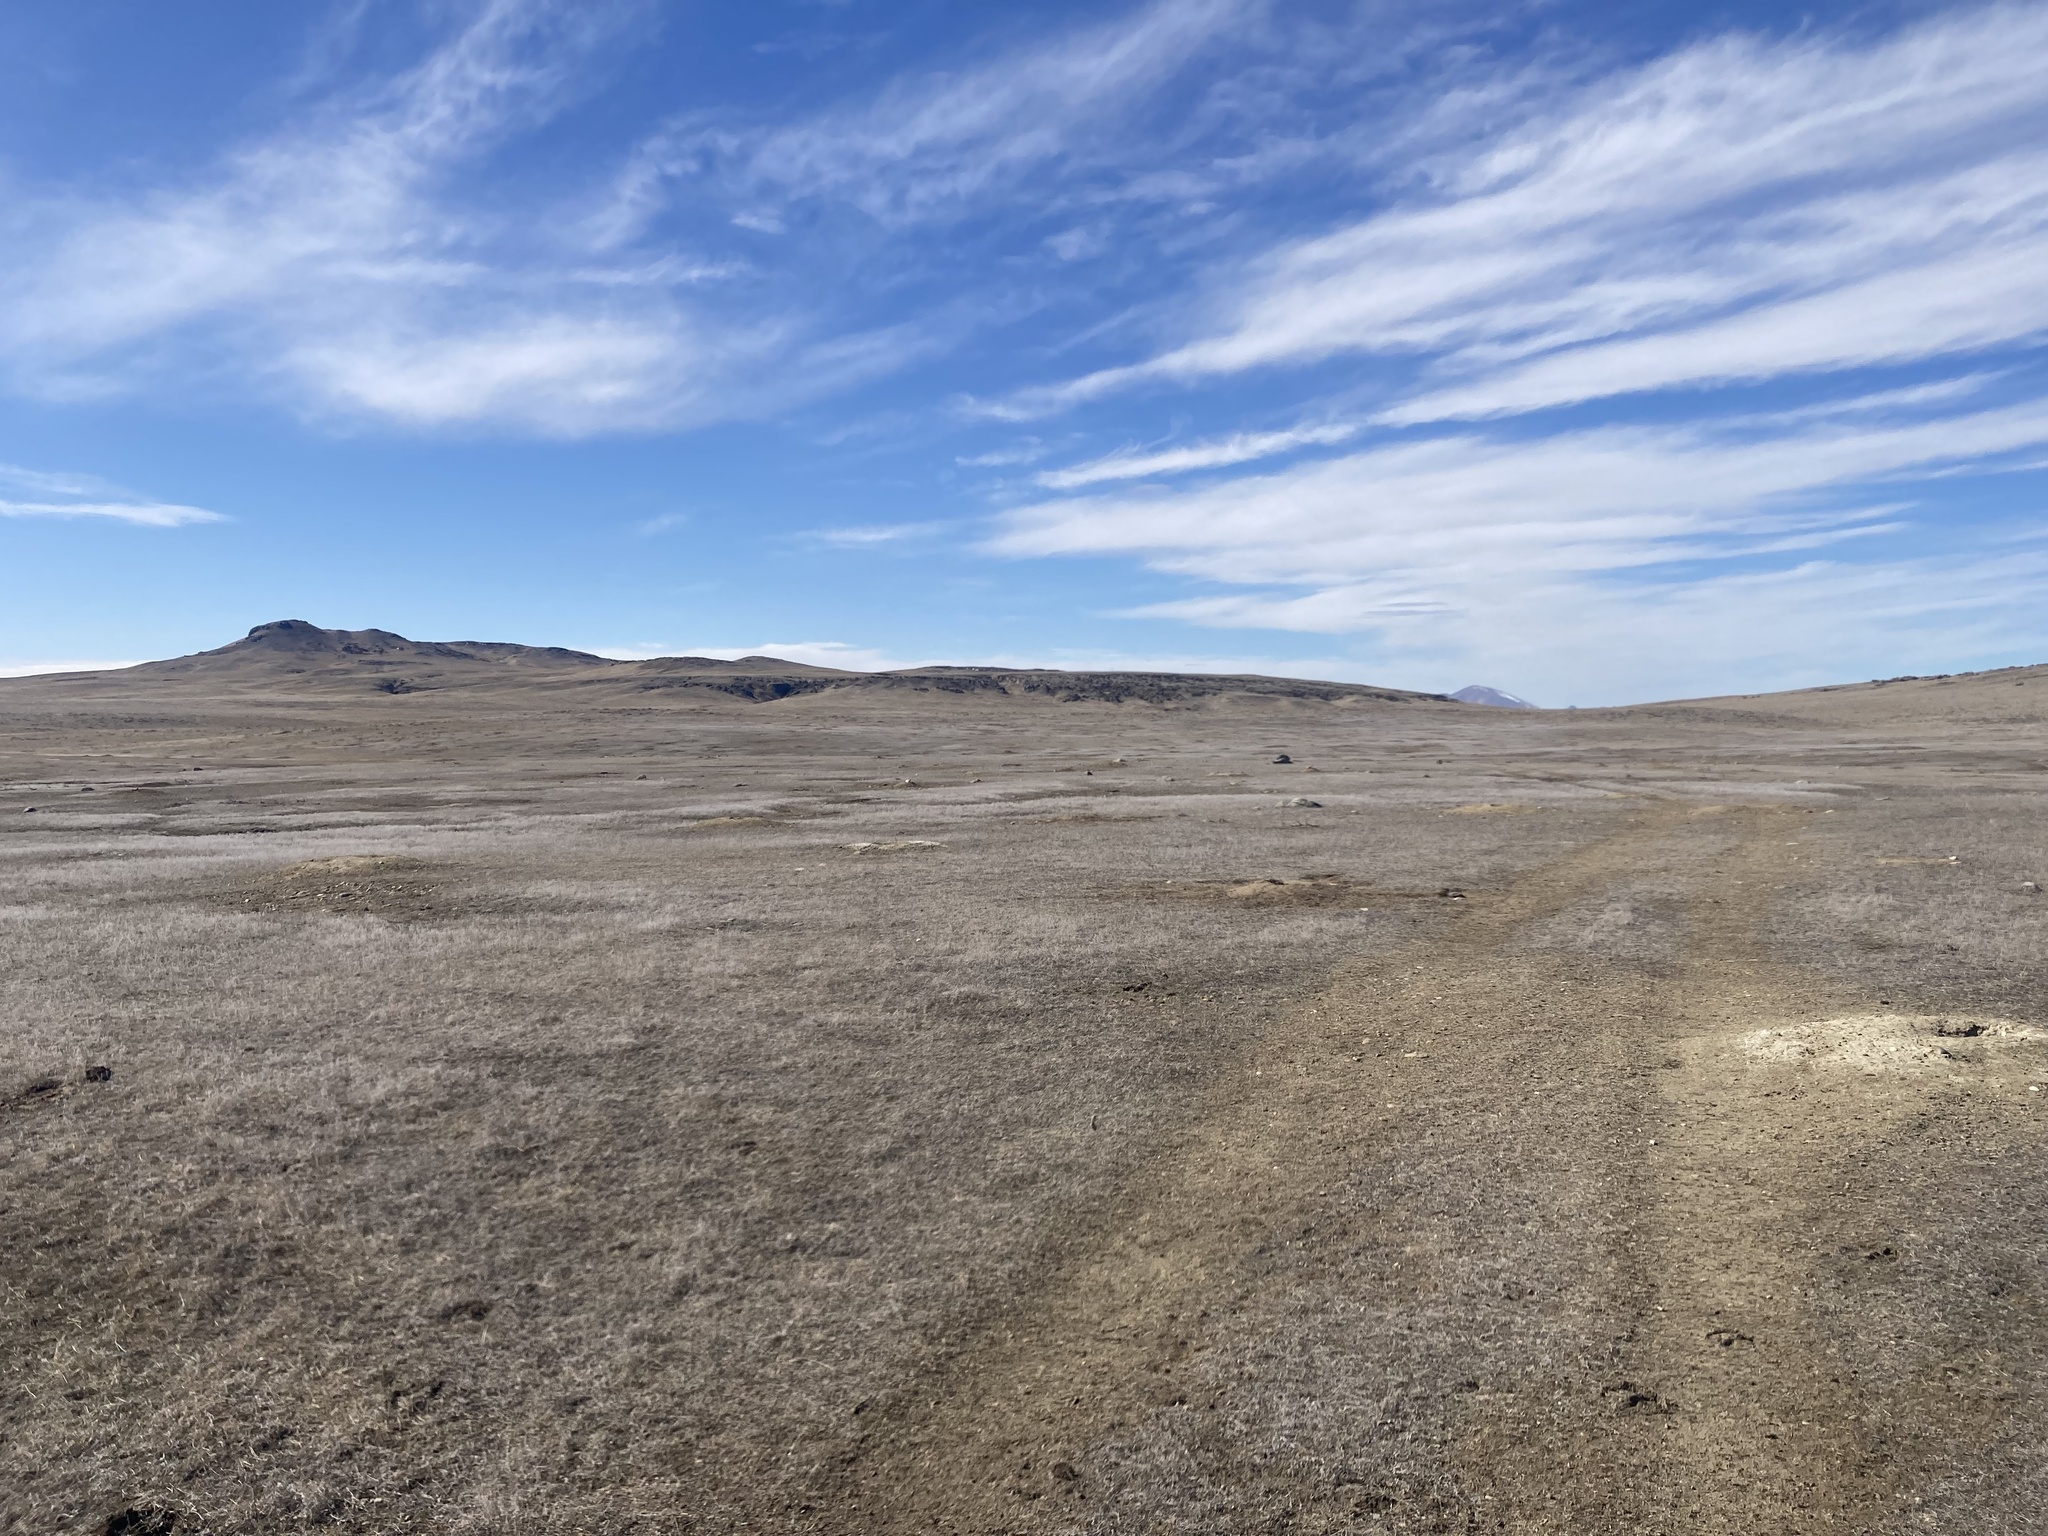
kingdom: Animalia
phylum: Chordata
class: Mammalia
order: Rodentia
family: Sciuridae
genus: Cynomys
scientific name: Cynomys ludovicianus
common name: Black-tailed prairie dog
